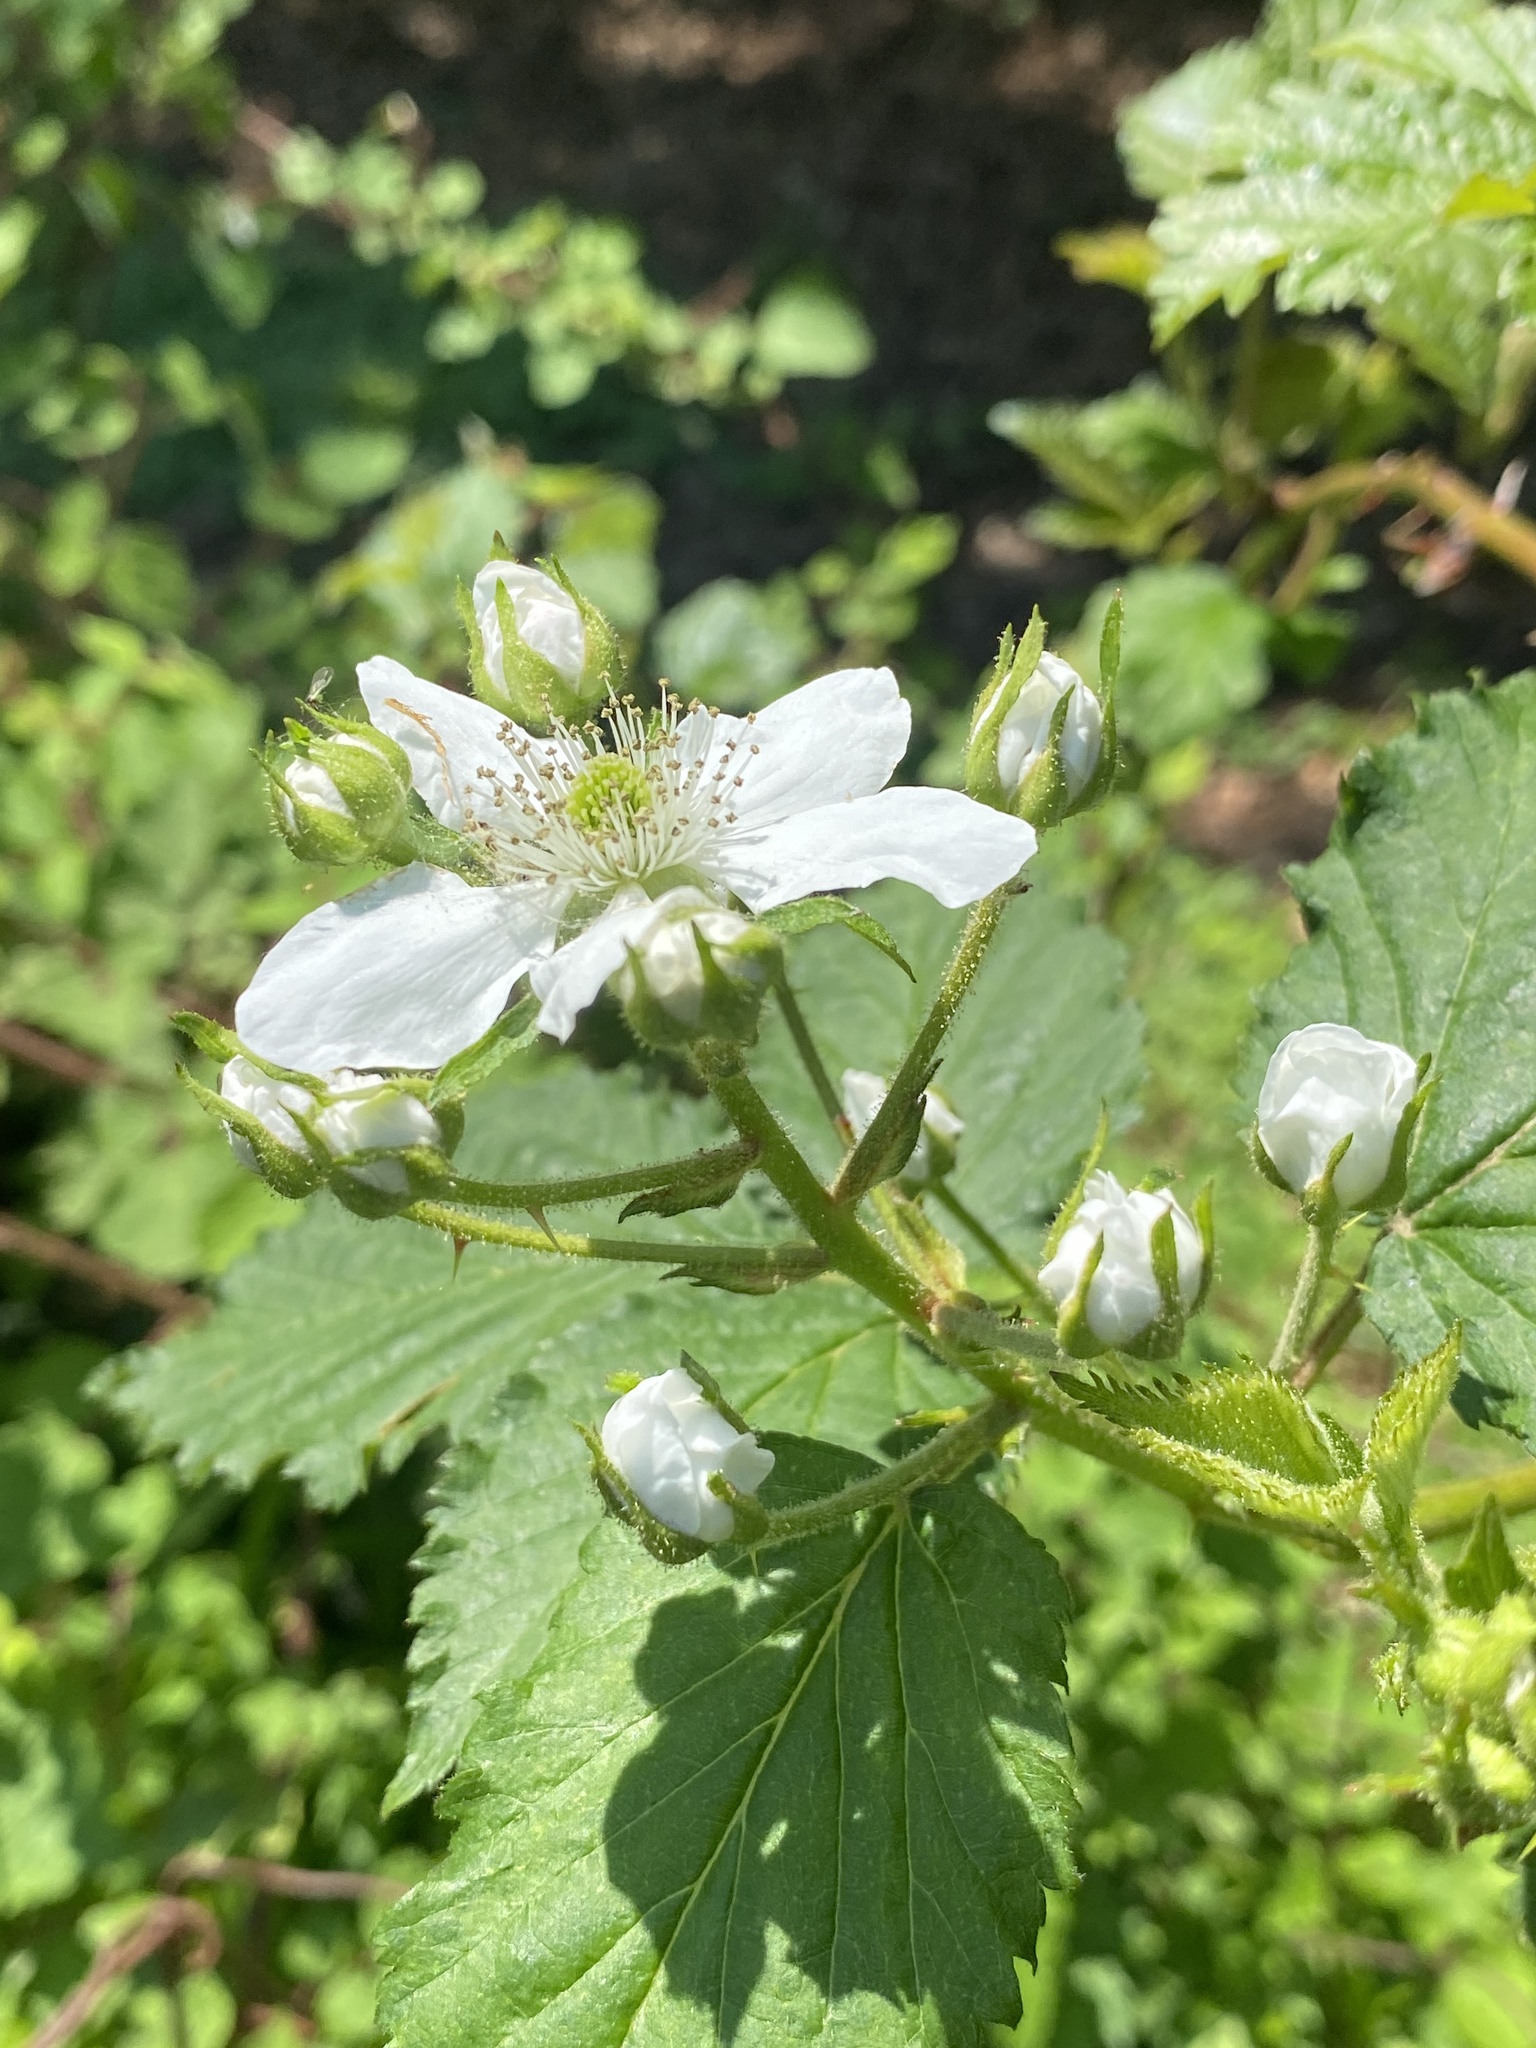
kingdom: Plantae
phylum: Tracheophyta
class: Magnoliopsida
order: Rosales
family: Rosaceae
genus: Rubus
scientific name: Rubus allegheniensis
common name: Allegheny blackberry
